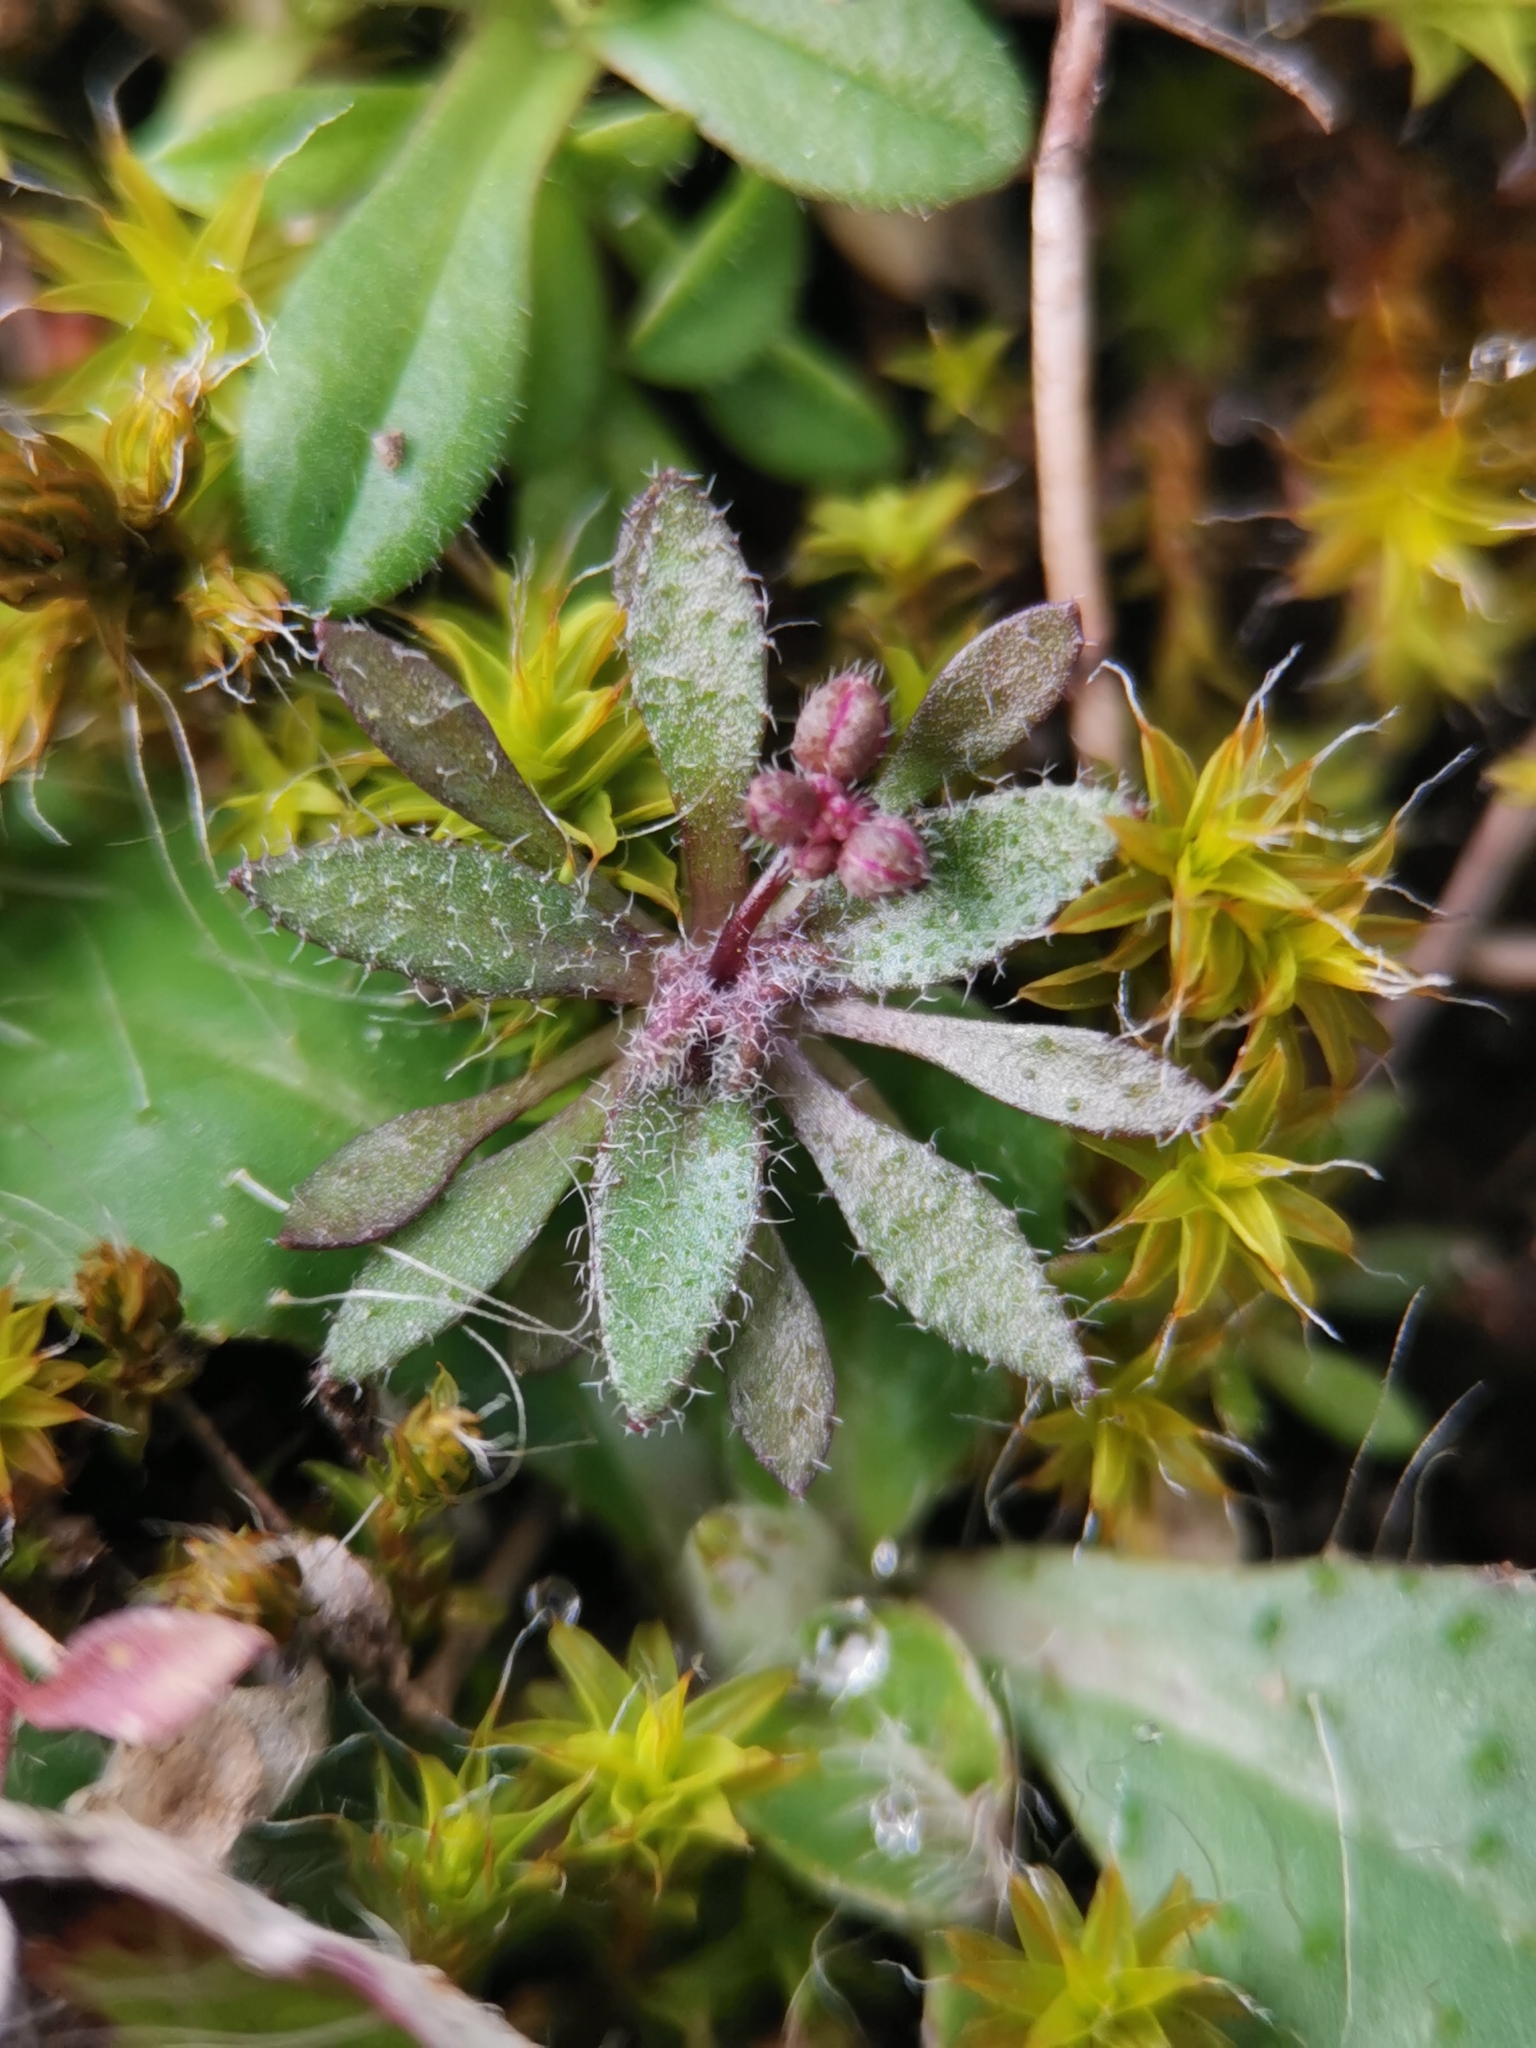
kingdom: Plantae
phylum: Tracheophyta
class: Magnoliopsida
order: Brassicales
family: Brassicaceae
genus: Draba
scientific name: Draba verna
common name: Spring draba
